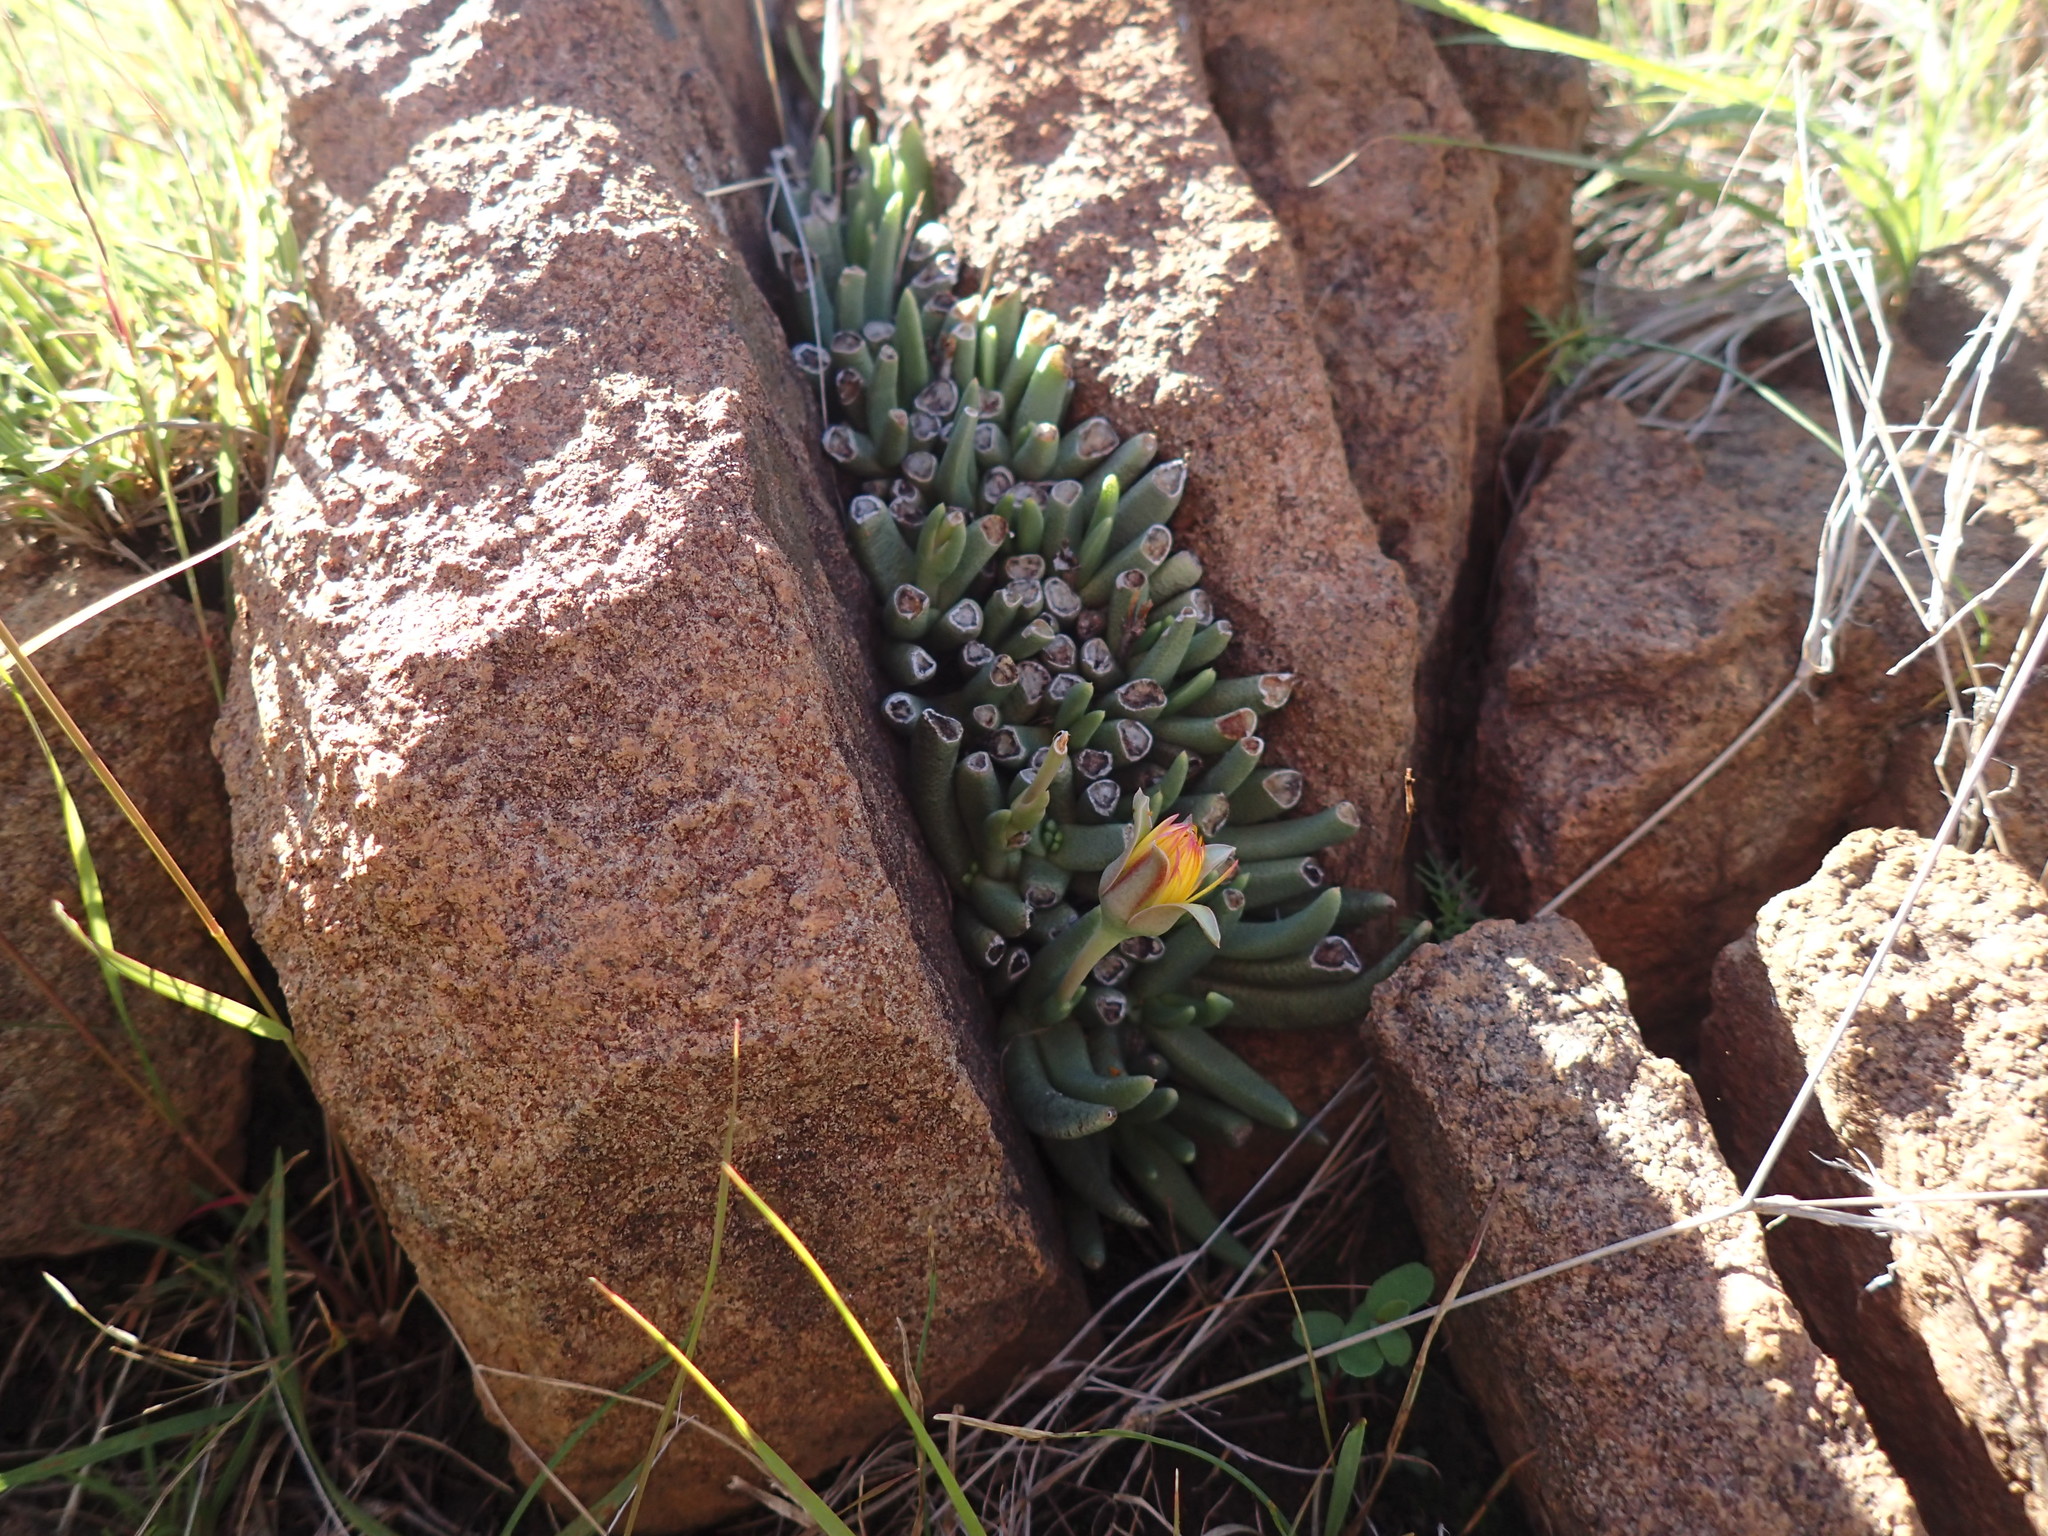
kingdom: Plantae
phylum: Tracheophyta
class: Magnoliopsida
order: Caryophyllales
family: Aizoaceae
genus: Dracophilus
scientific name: Dracophilus Hereroa glenensis
